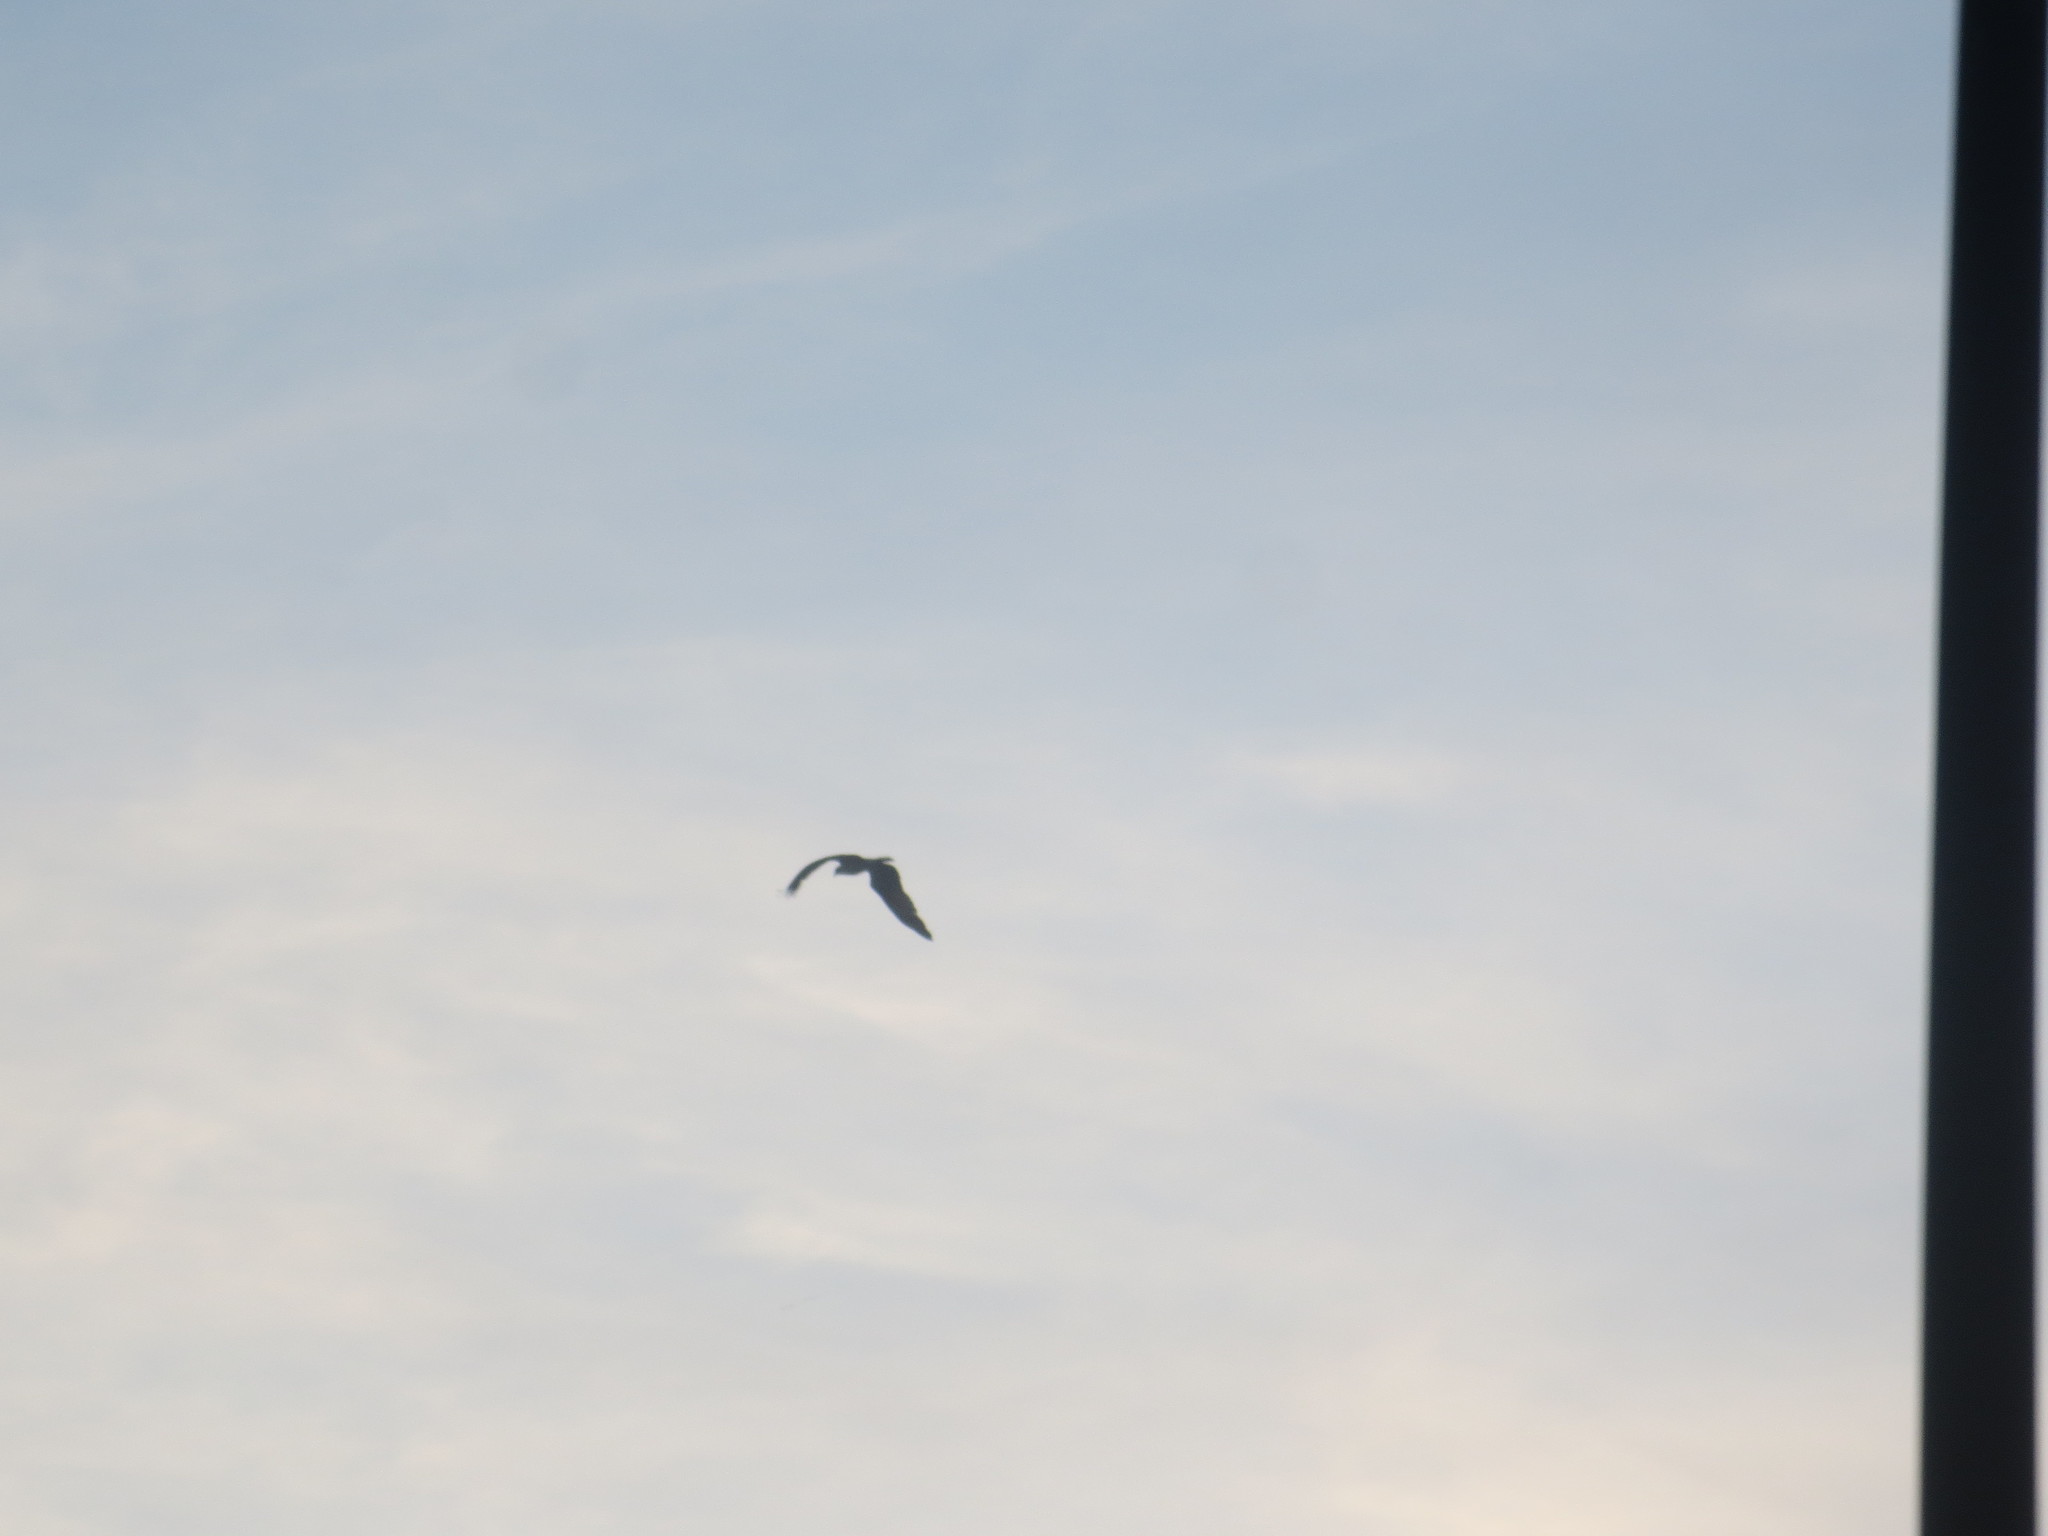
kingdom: Animalia
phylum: Chordata
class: Aves
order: Accipitriformes
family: Pandionidae
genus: Pandion
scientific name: Pandion haliaetus
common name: Osprey
